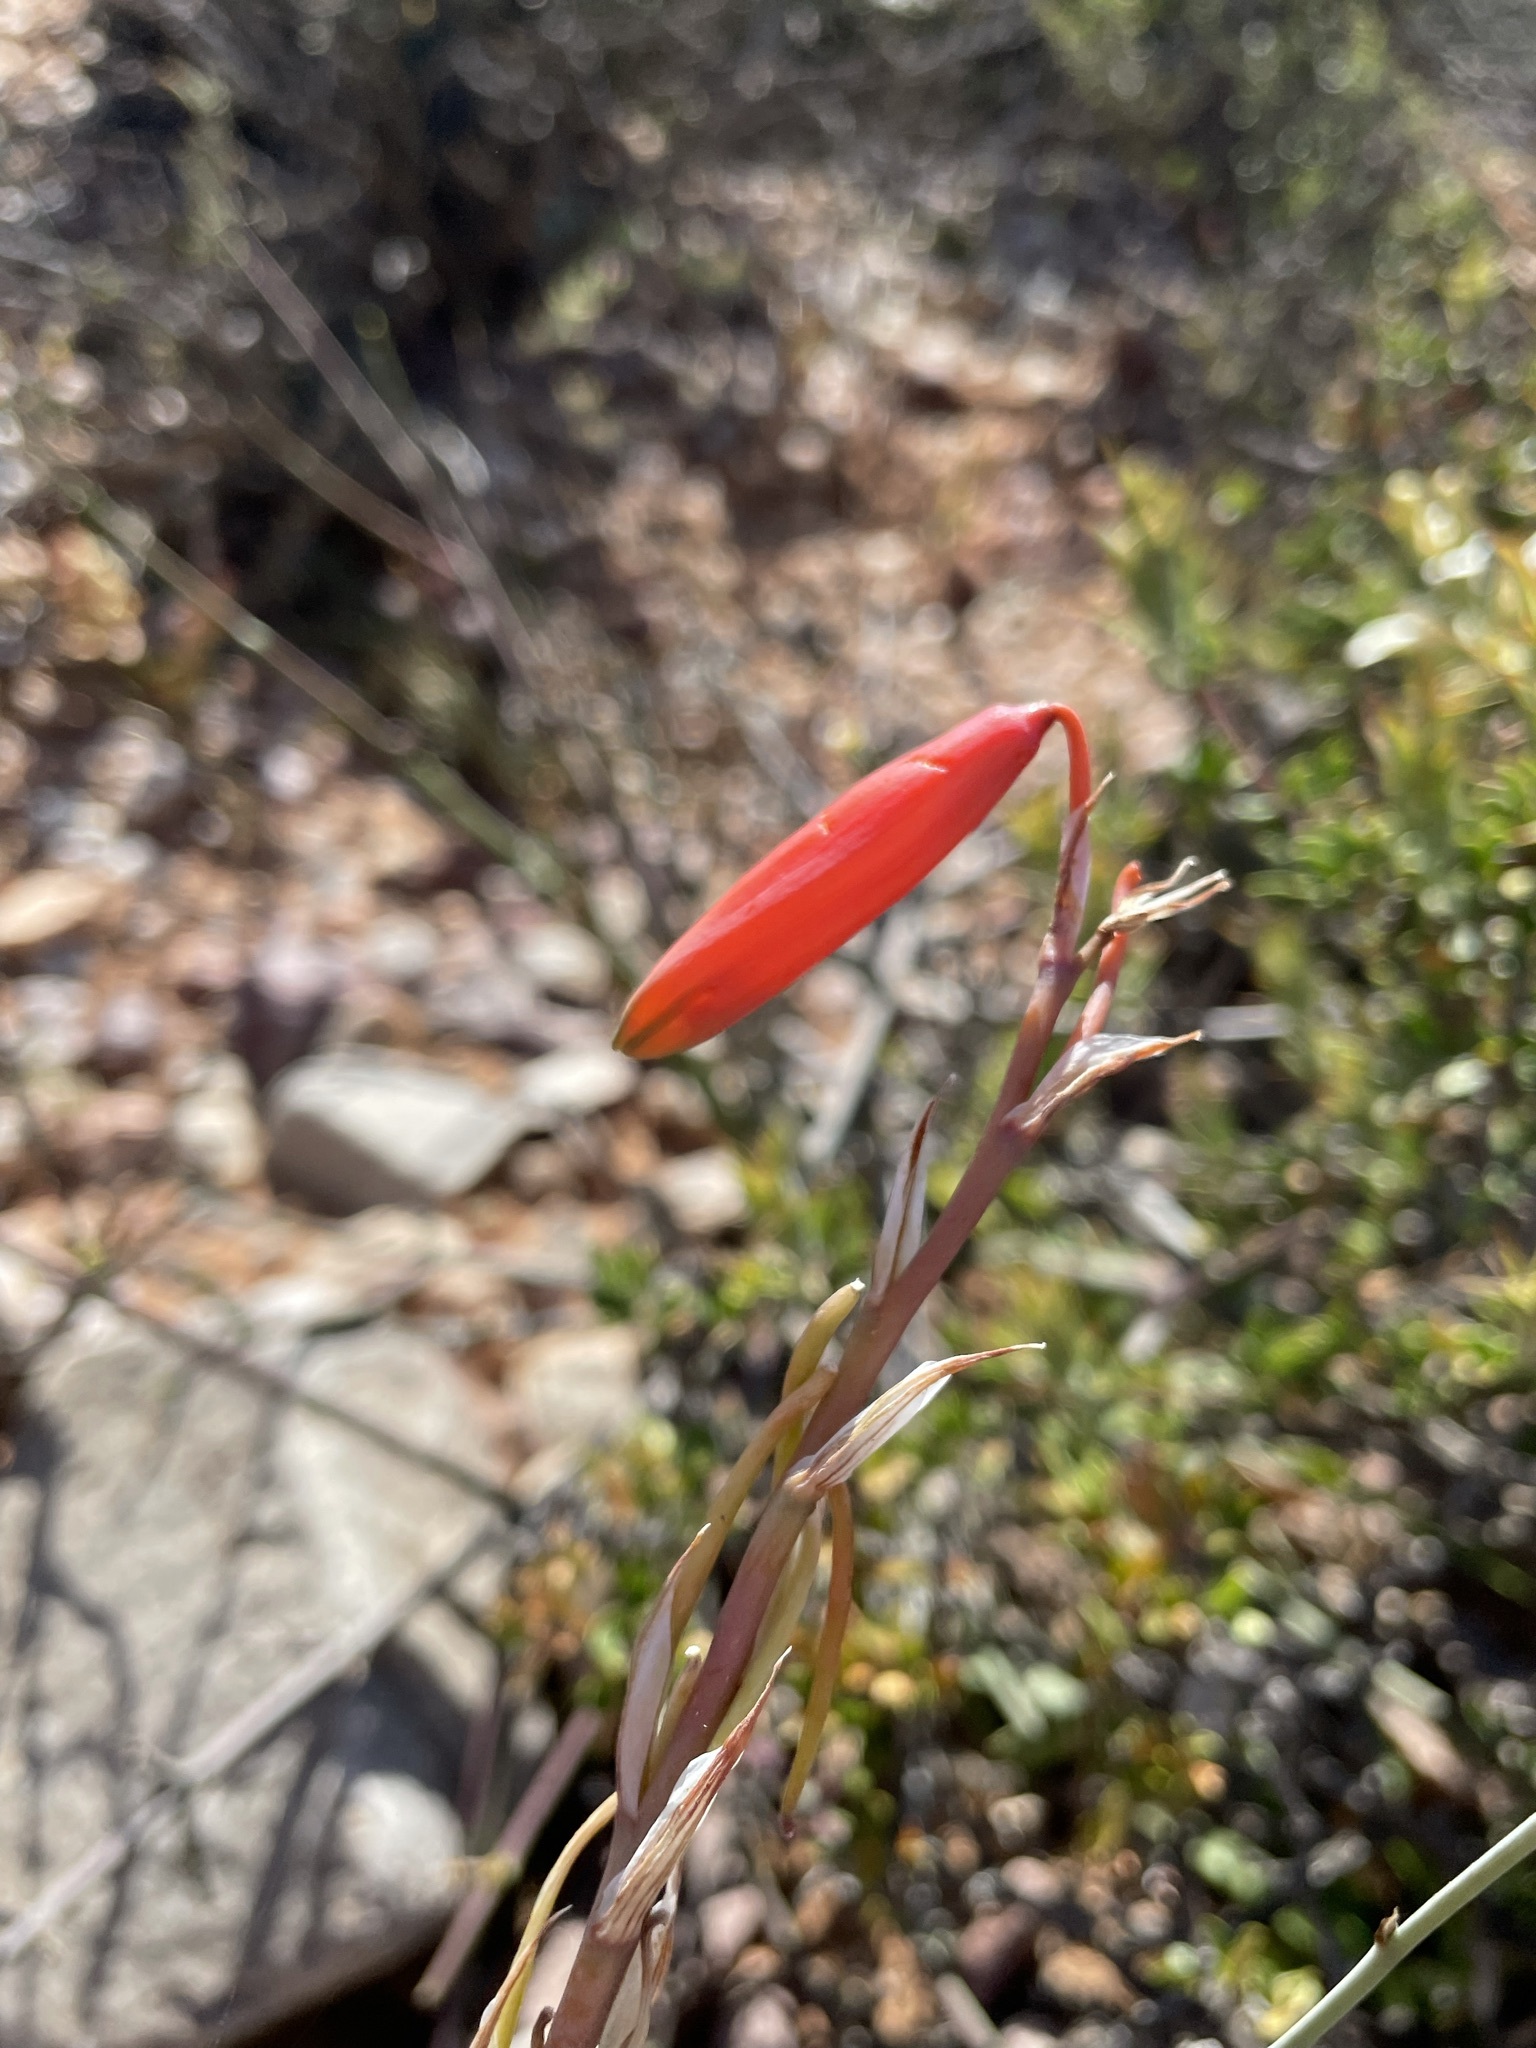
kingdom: Plantae
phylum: Tracheophyta
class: Liliopsida
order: Asparagales
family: Asphodelaceae
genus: Aloe
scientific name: Aloe humilis
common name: Dwarf hedgehog aloe
